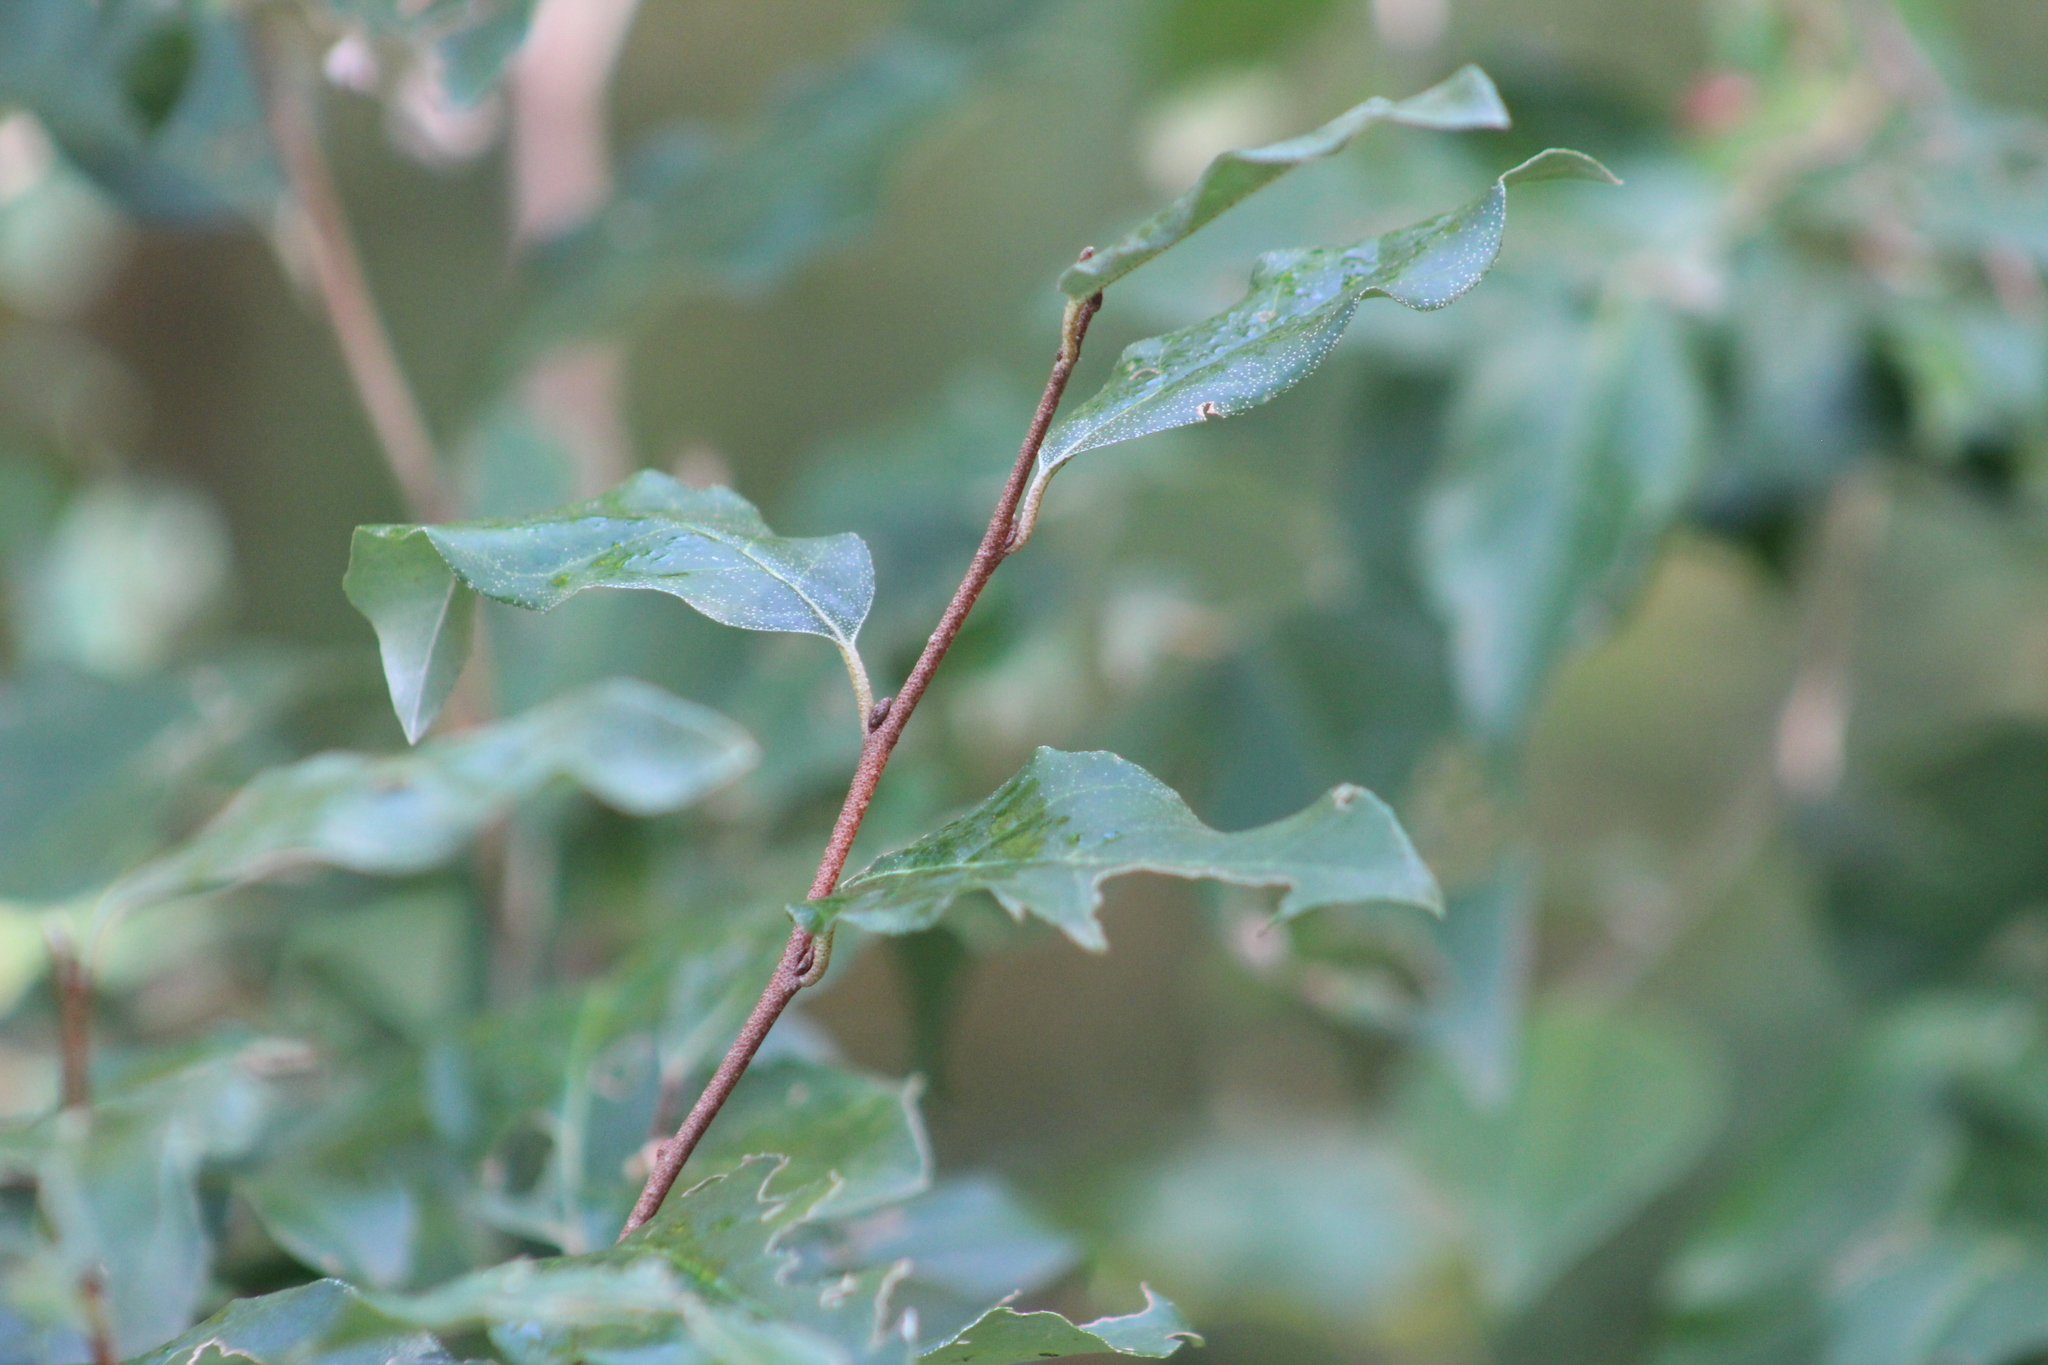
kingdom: Plantae
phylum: Tracheophyta
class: Magnoliopsida
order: Rosales
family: Elaeagnaceae
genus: Elaeagnus
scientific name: Elaeagnus umbellata
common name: Autumn olive
